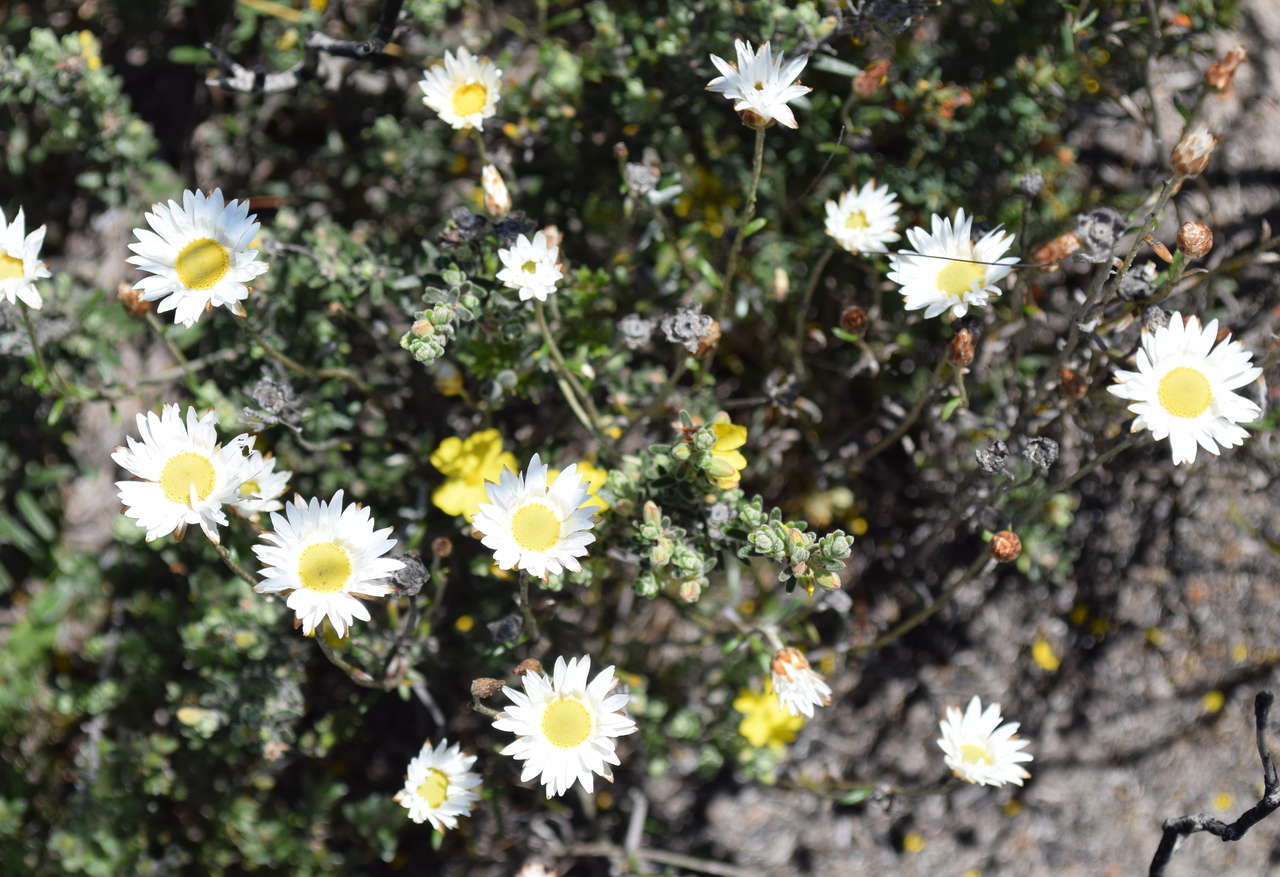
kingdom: Plantae
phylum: Tracheophyta
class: Magnoliopsida
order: Asterales
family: Asteraceae
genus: Argentipallium
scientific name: Argentipallium obtusifolium
